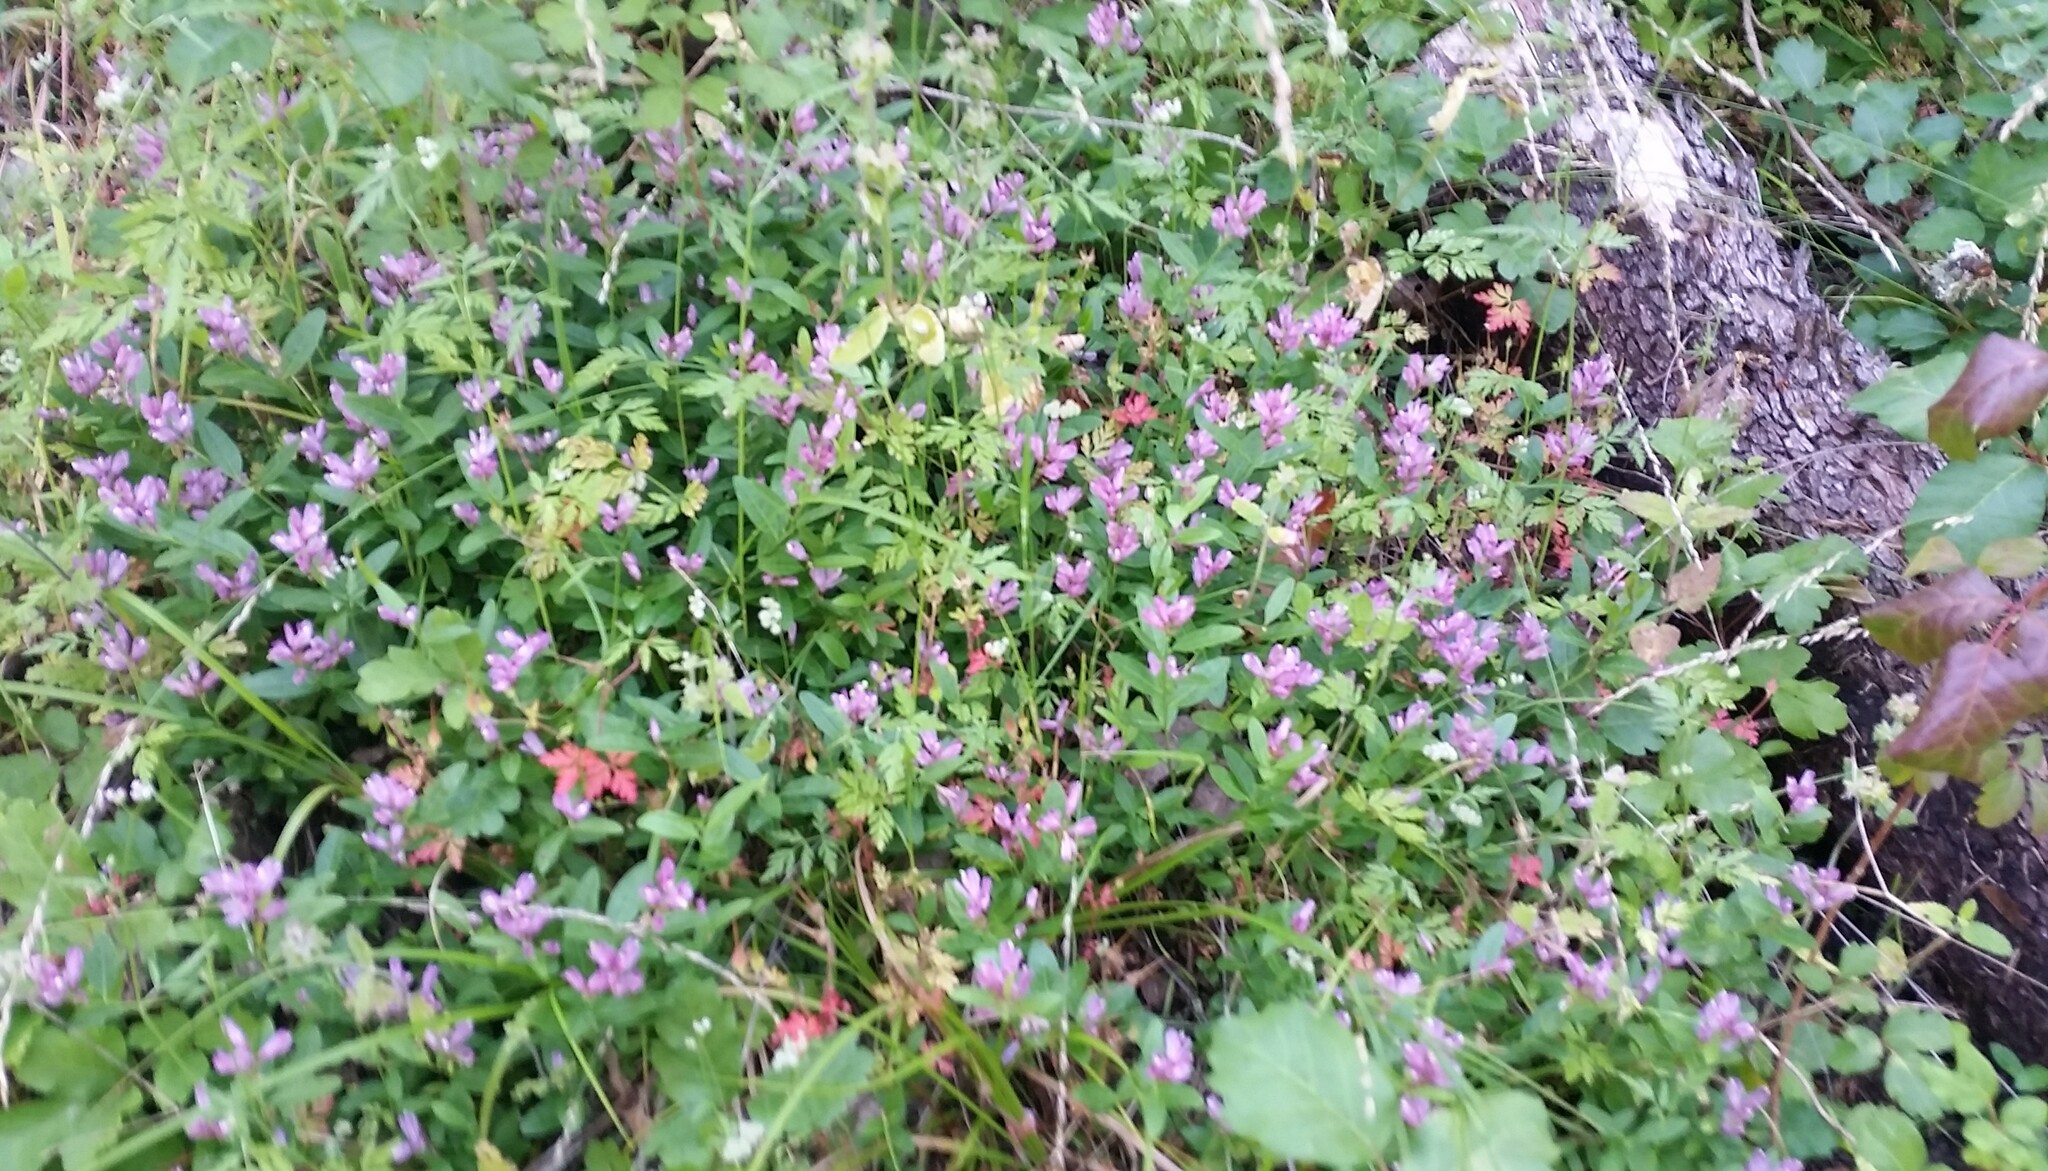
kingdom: Plantae
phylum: Tracheophyta
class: Magnoliopsida
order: Fabales
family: Polygalaceae
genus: Rhinotropis
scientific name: Rhinotropis californica
